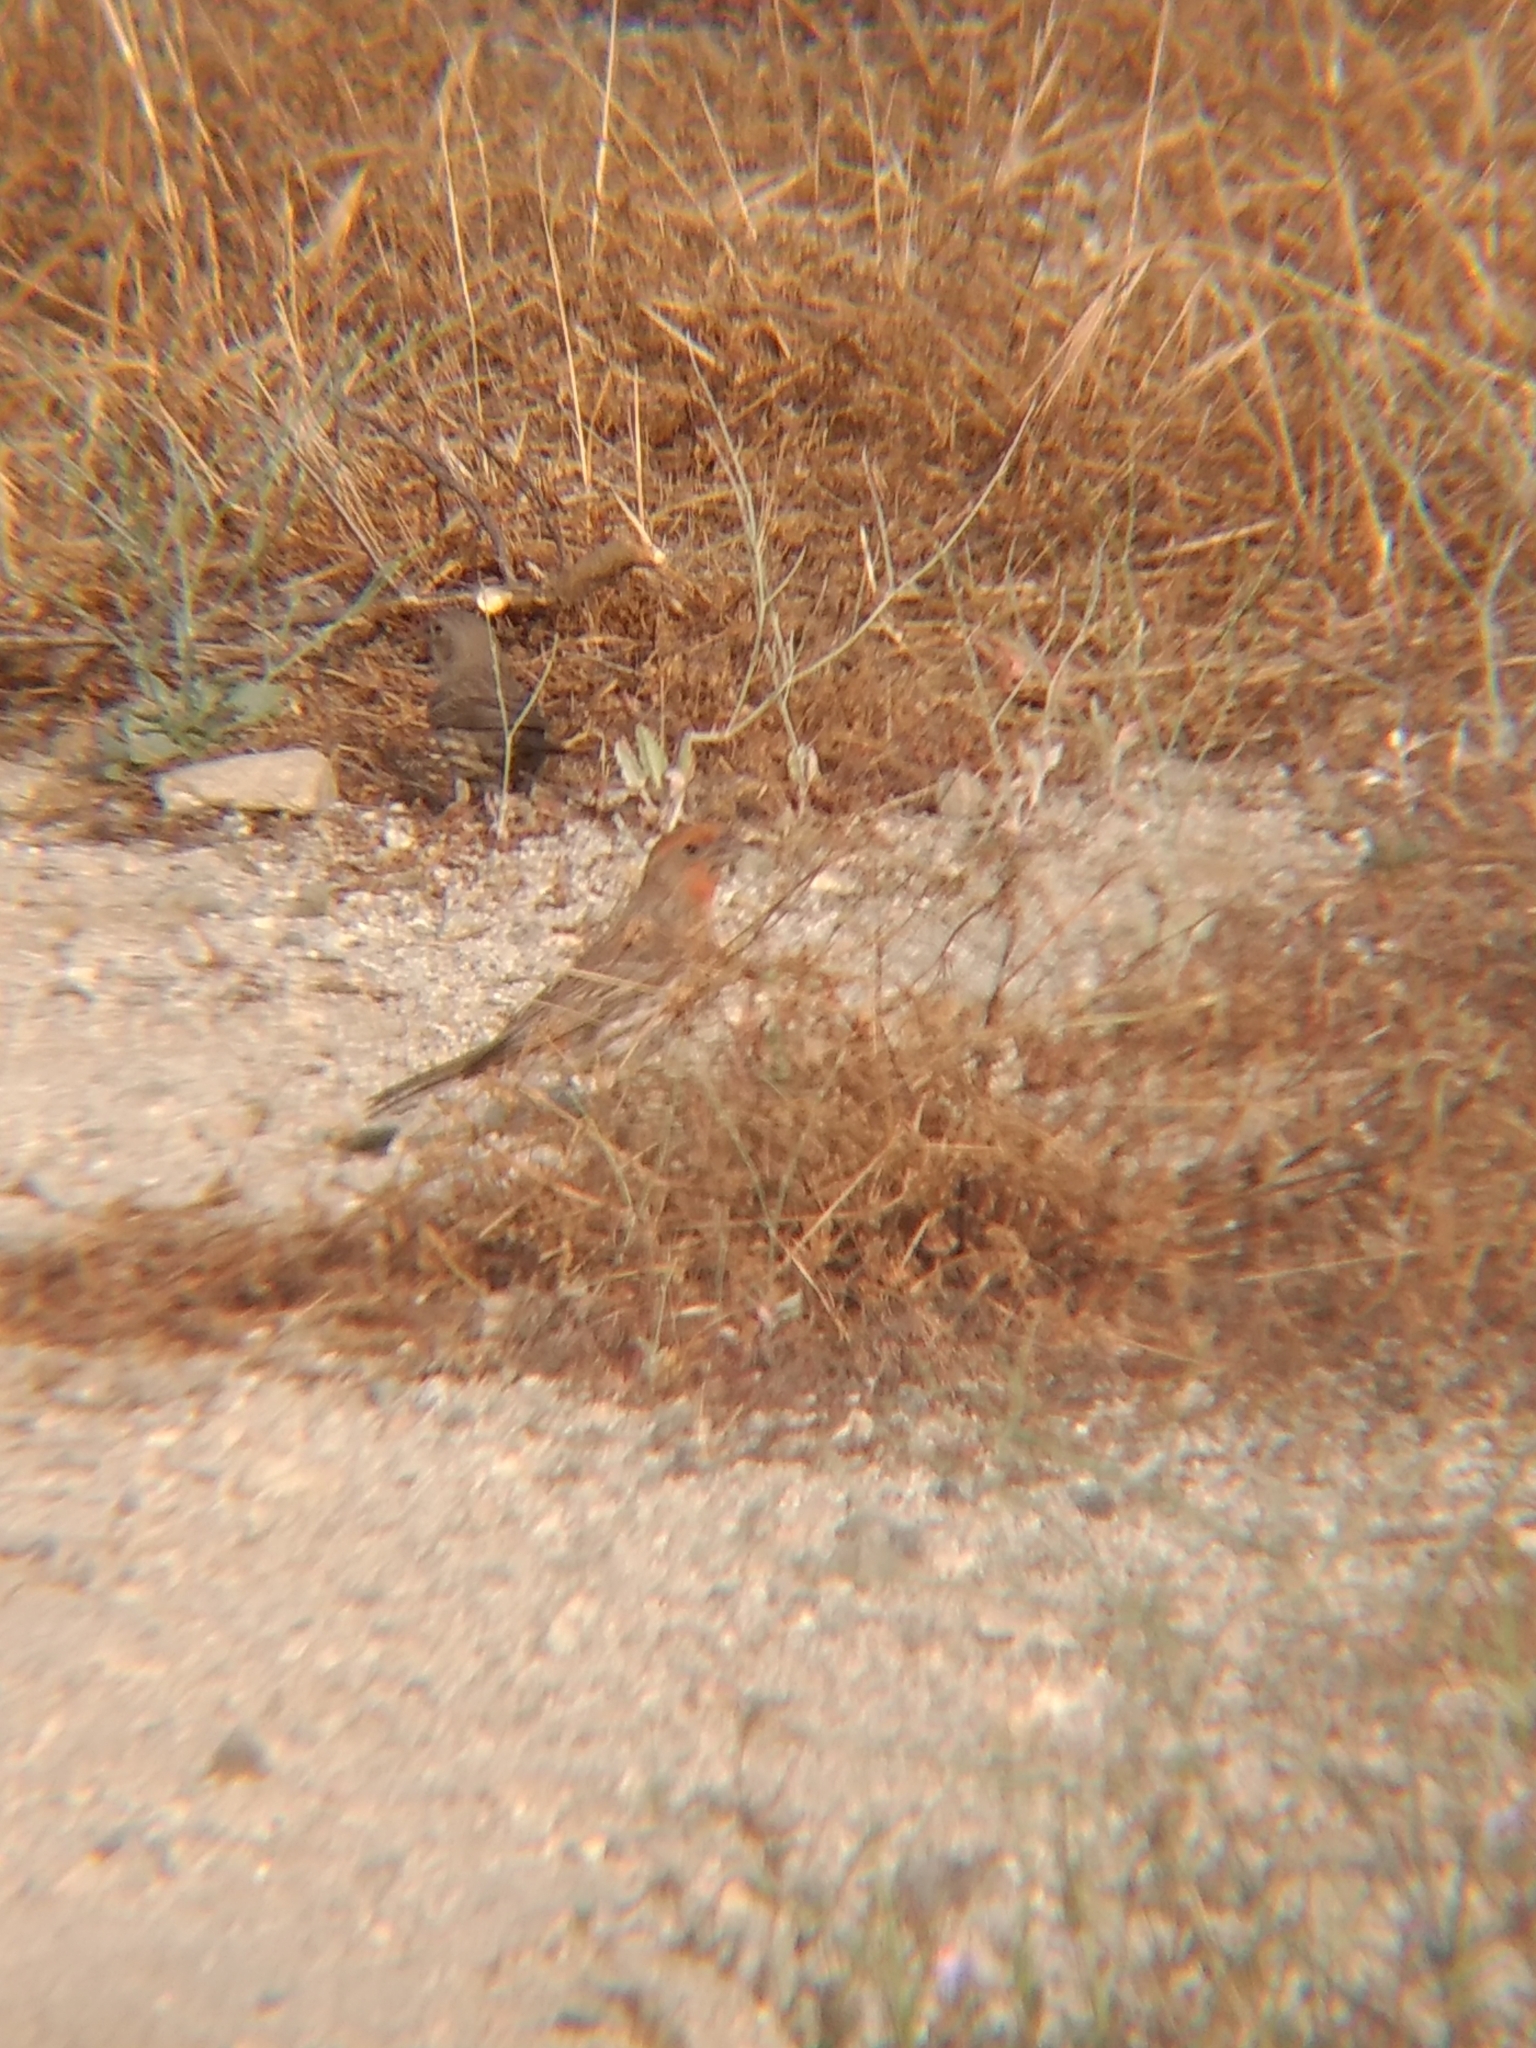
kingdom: Animalia
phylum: Chordata
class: Aves
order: Passeriformes
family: Fringillidae
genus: Haemorhous
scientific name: Haemorhous mexicanus
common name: House finch
